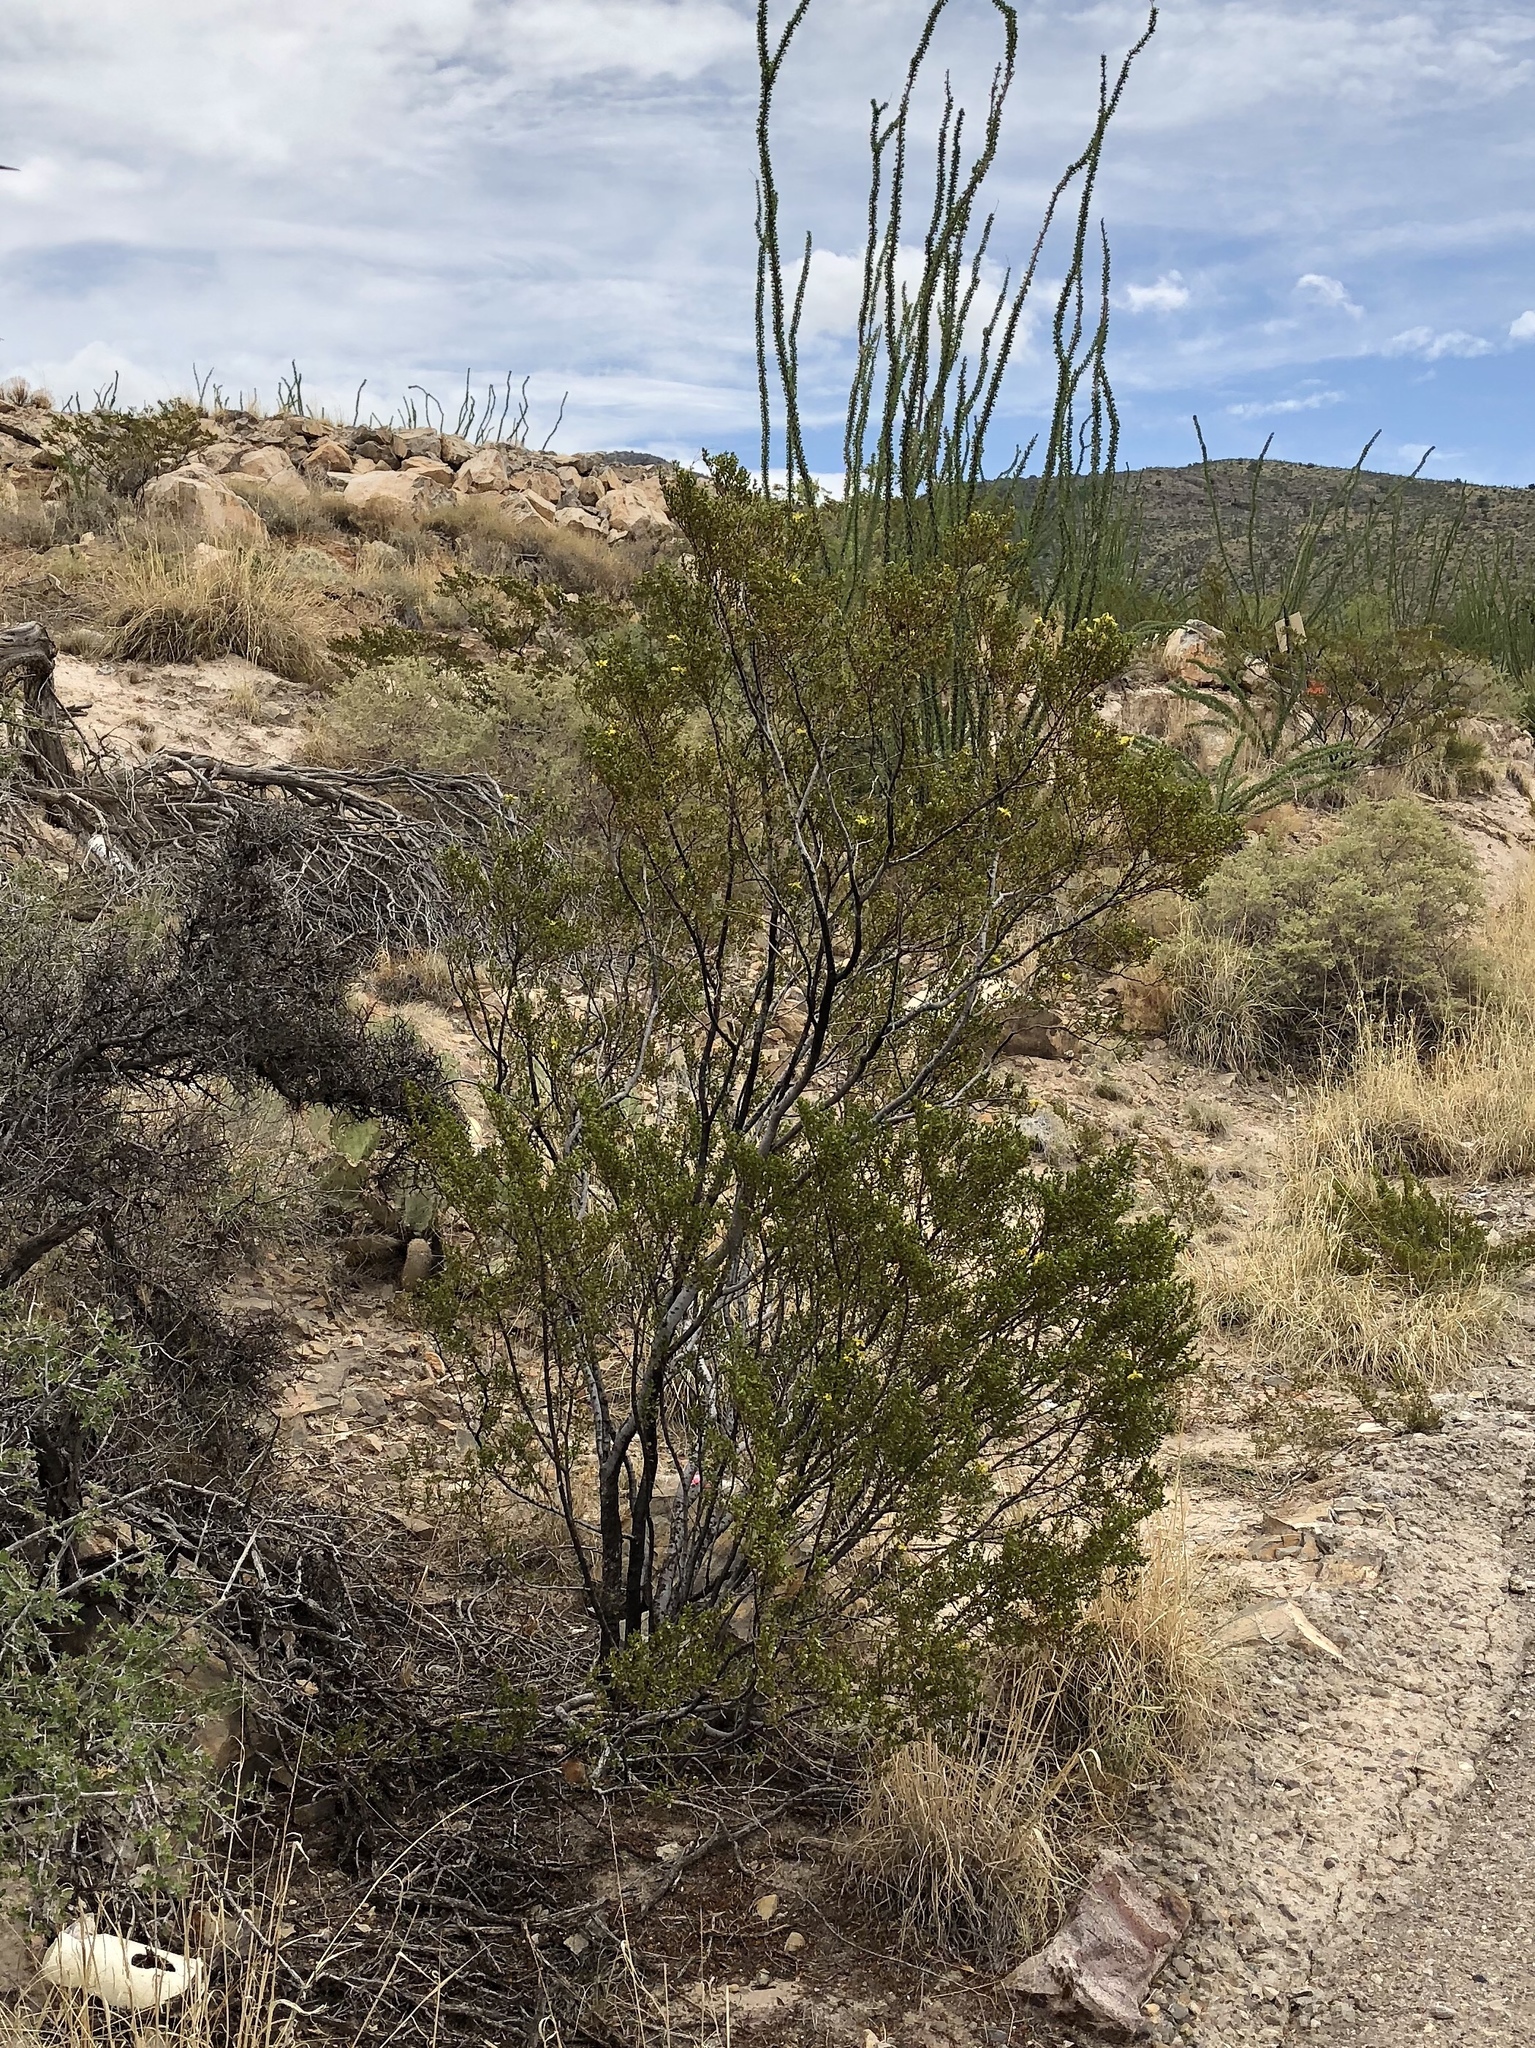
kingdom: Plantae
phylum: Tracheophyta
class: Magnoliopsida
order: Zygophyllales
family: Zygophyllaceae
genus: Larrea
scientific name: Larrea tridentata
